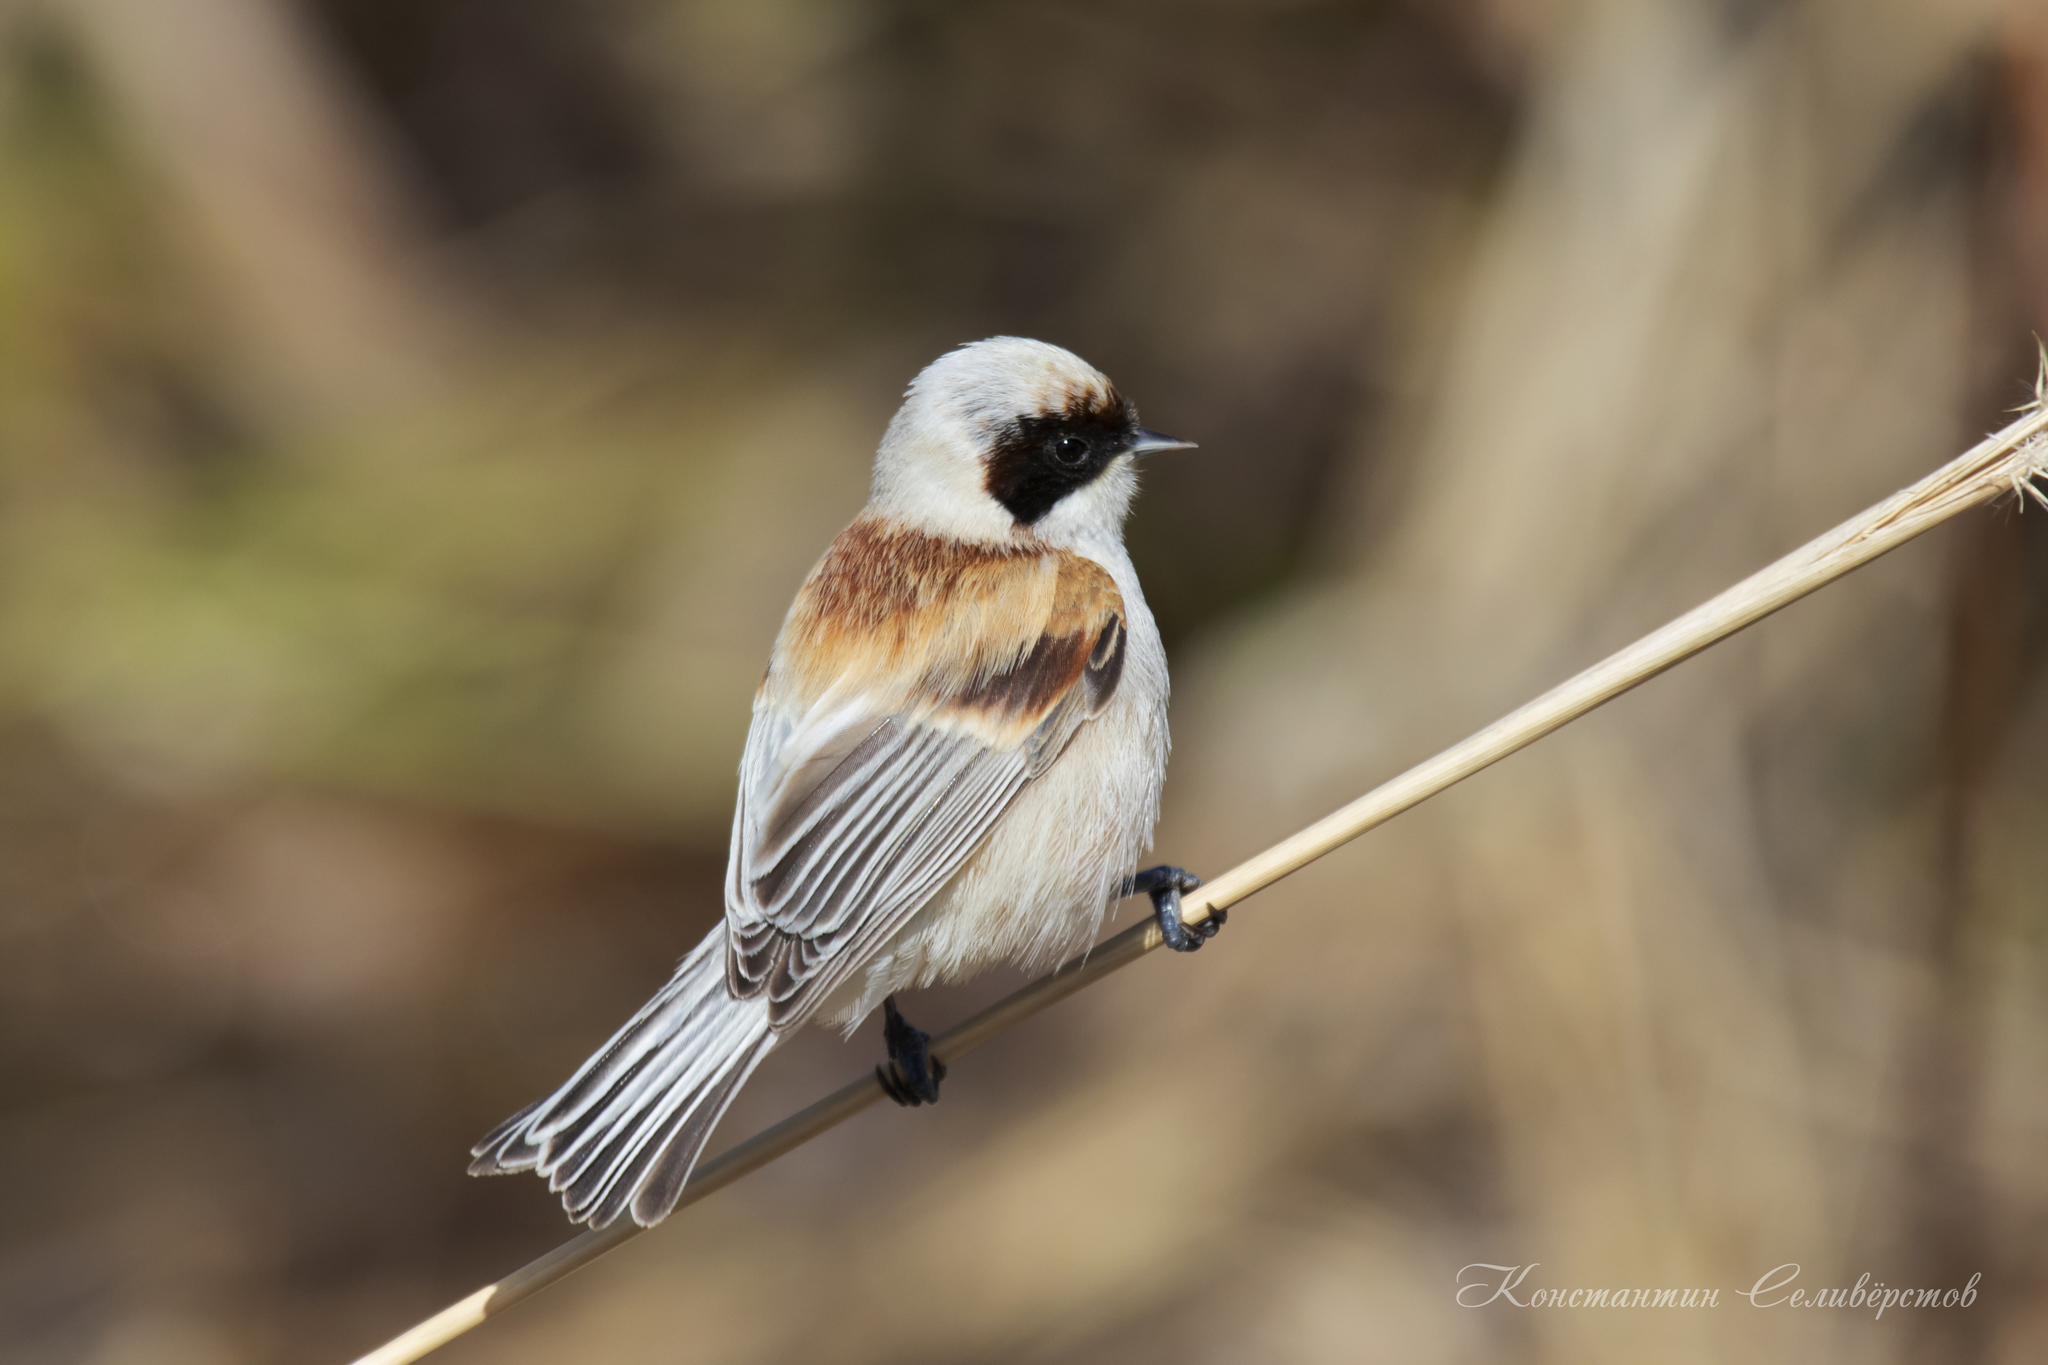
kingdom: Animalia
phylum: Chordata
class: Aves
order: Passeriformes
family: Remizidae
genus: Remiz
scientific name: Remiz pendulinus
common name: Eurasian penduline tit
